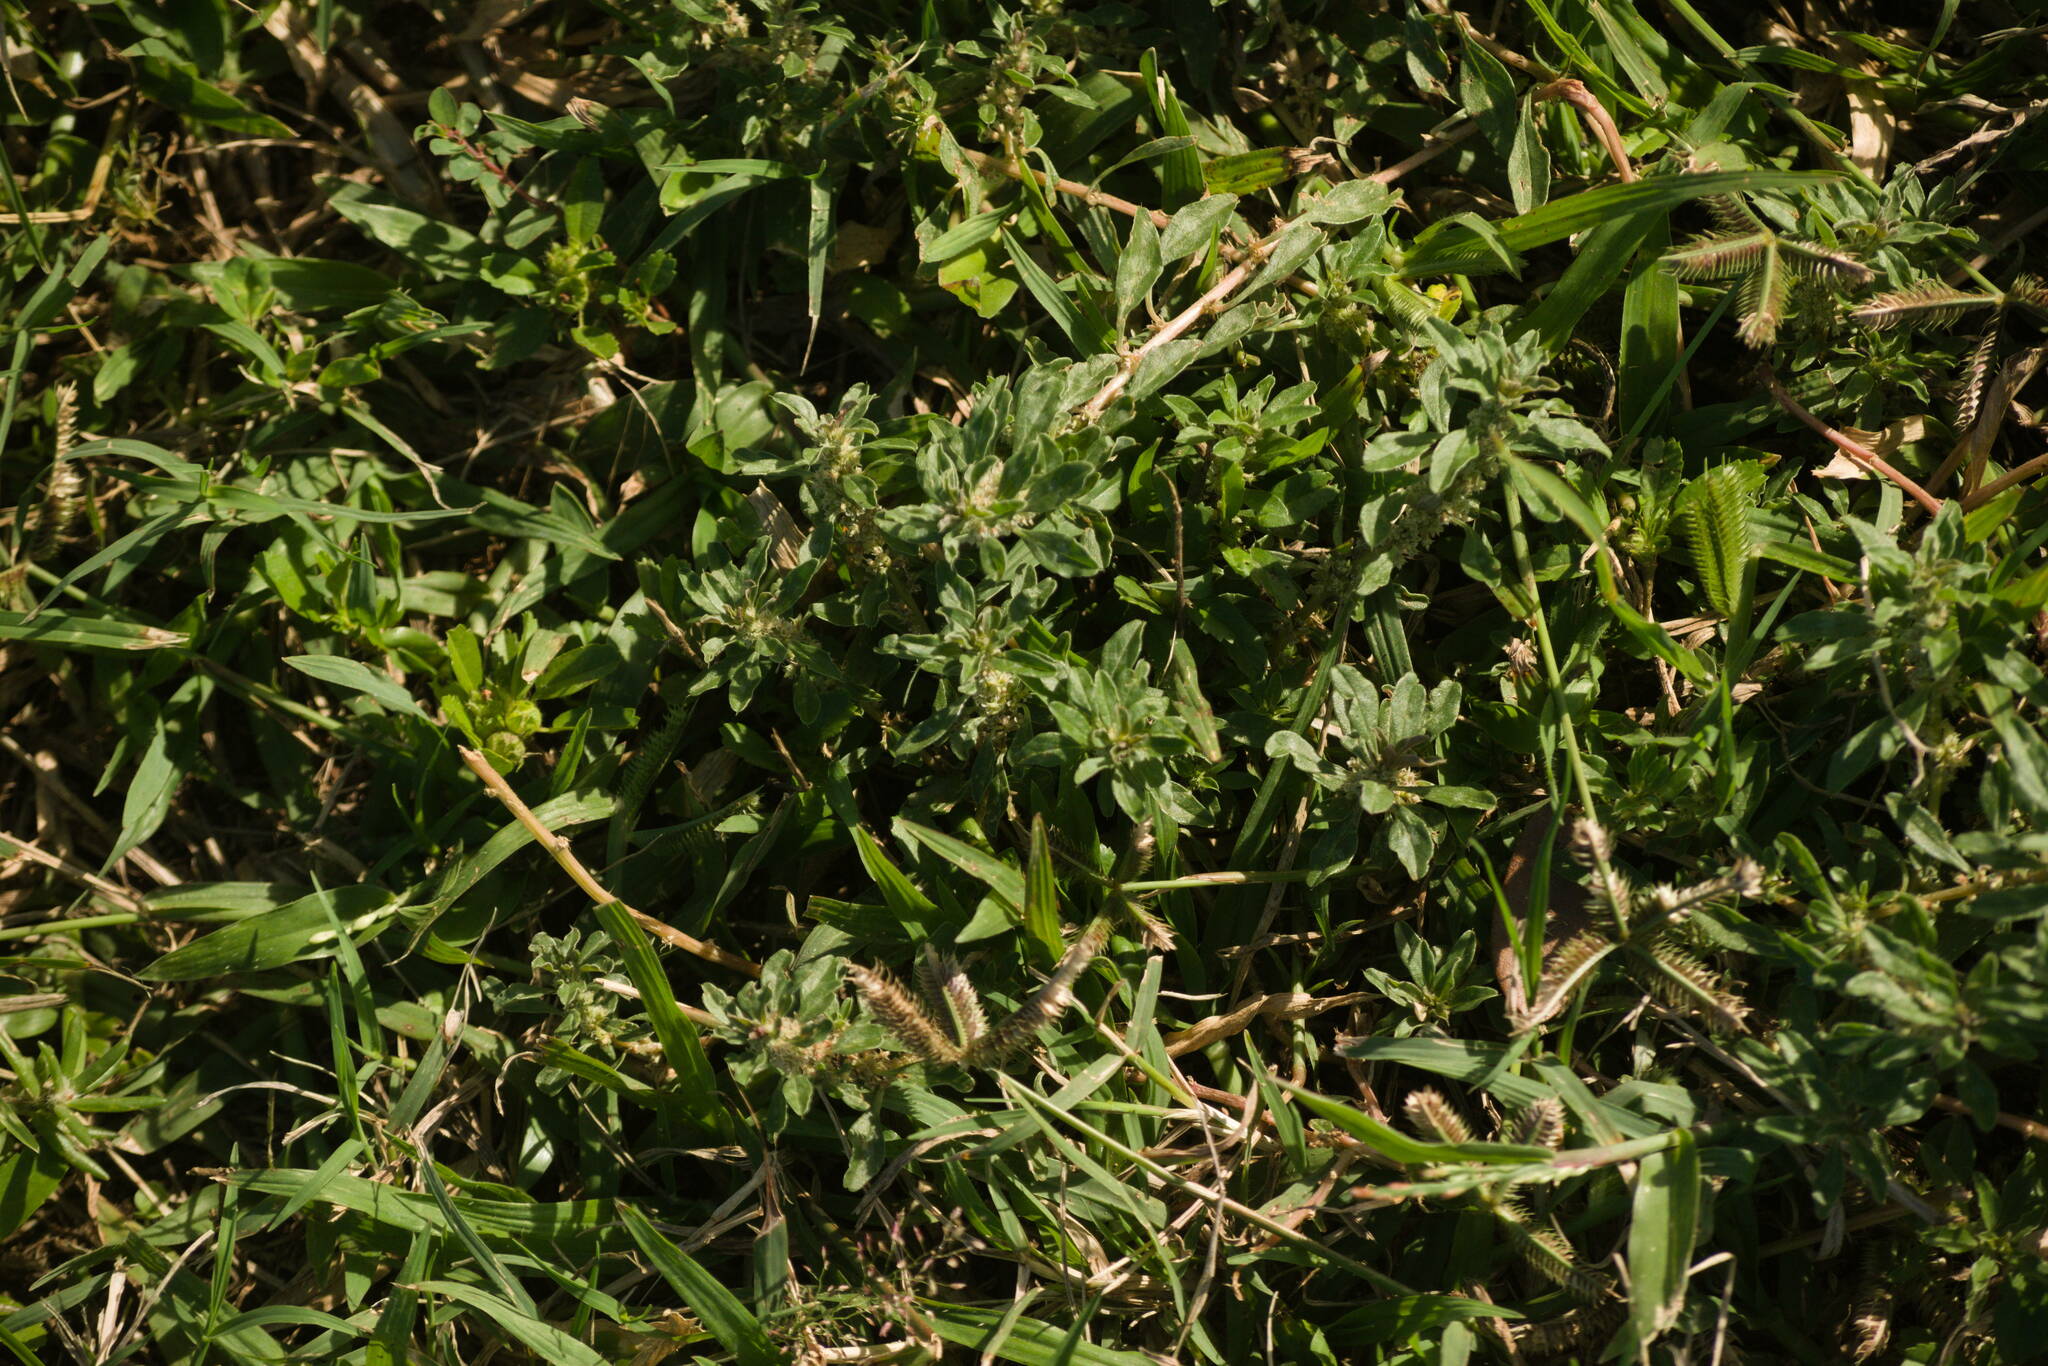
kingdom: Plantae
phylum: Tracheophyta
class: Magnoliopsida
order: Caryophyllales
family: Amaranthaceae
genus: Amaranthus
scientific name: Amaranthus polygonoides
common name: Tropical amaranth
